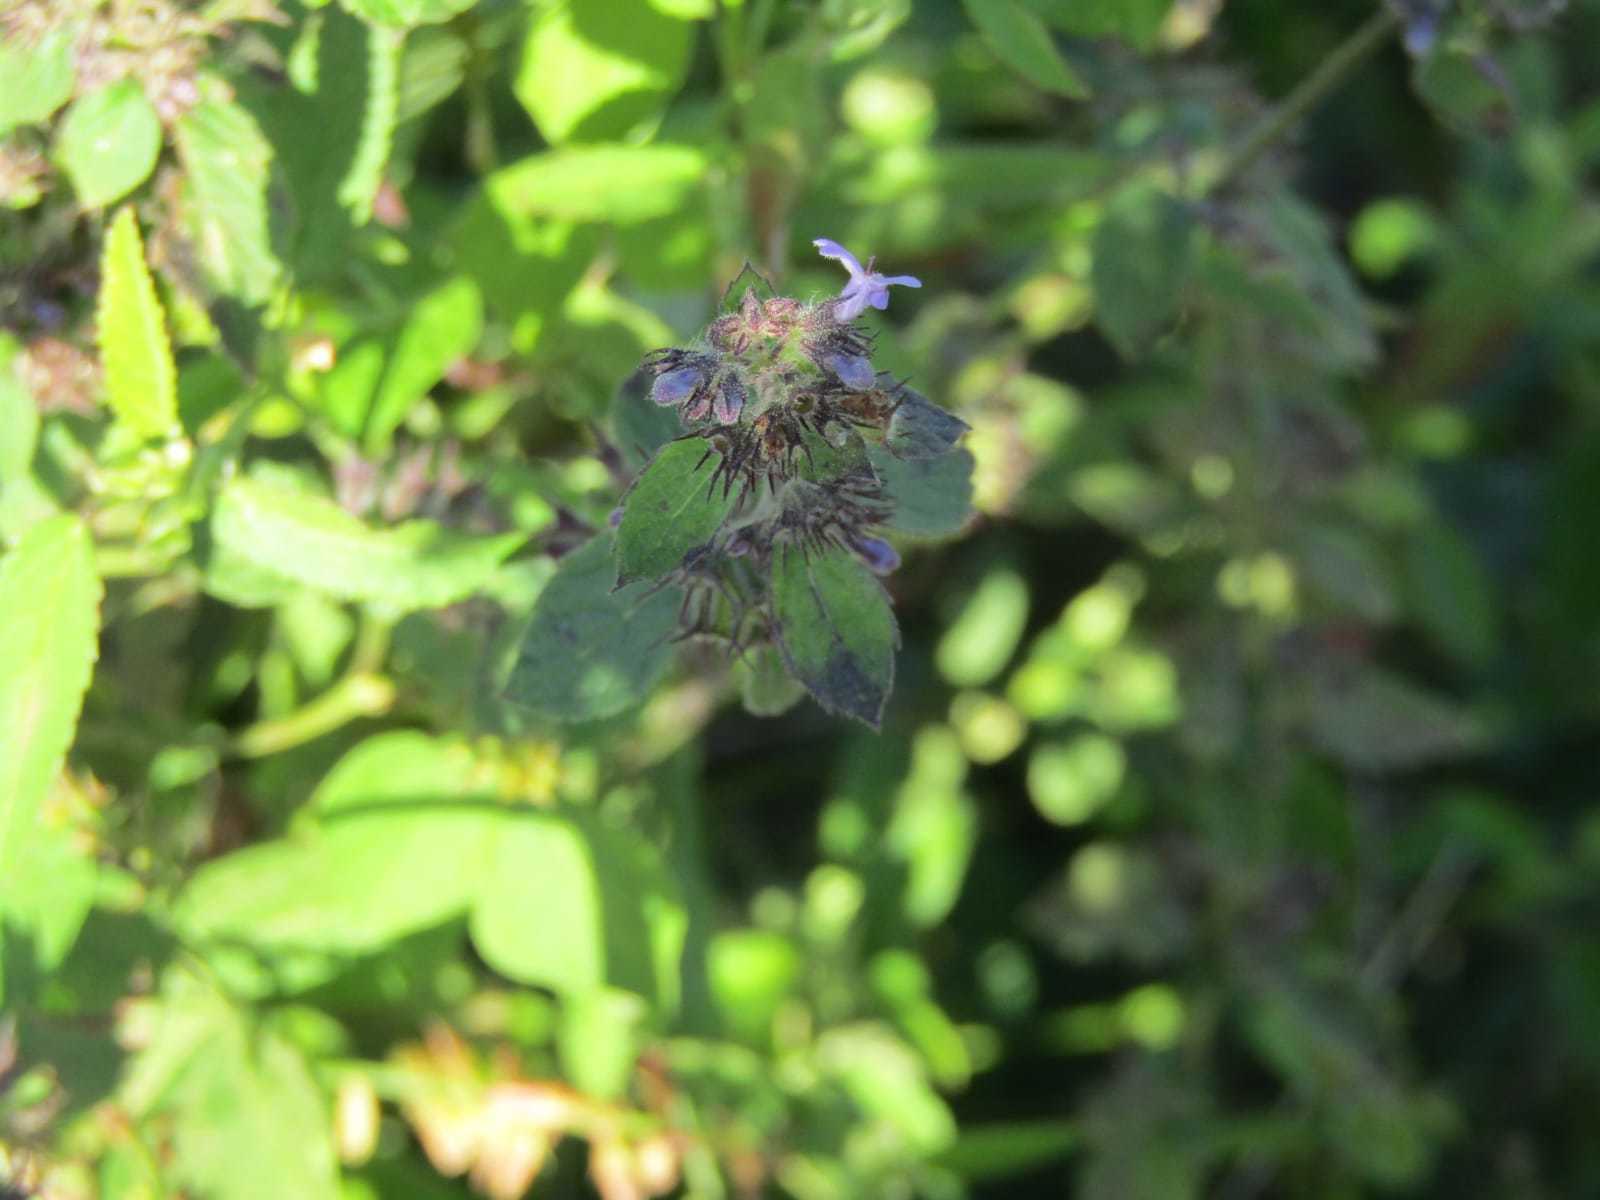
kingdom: Plantae
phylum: Tracheophyta
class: Magnoliopsida
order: Lamiales
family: Lamiaceae
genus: Mesosphaerum
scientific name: Mesosphaerum suaveolens
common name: Pignut
